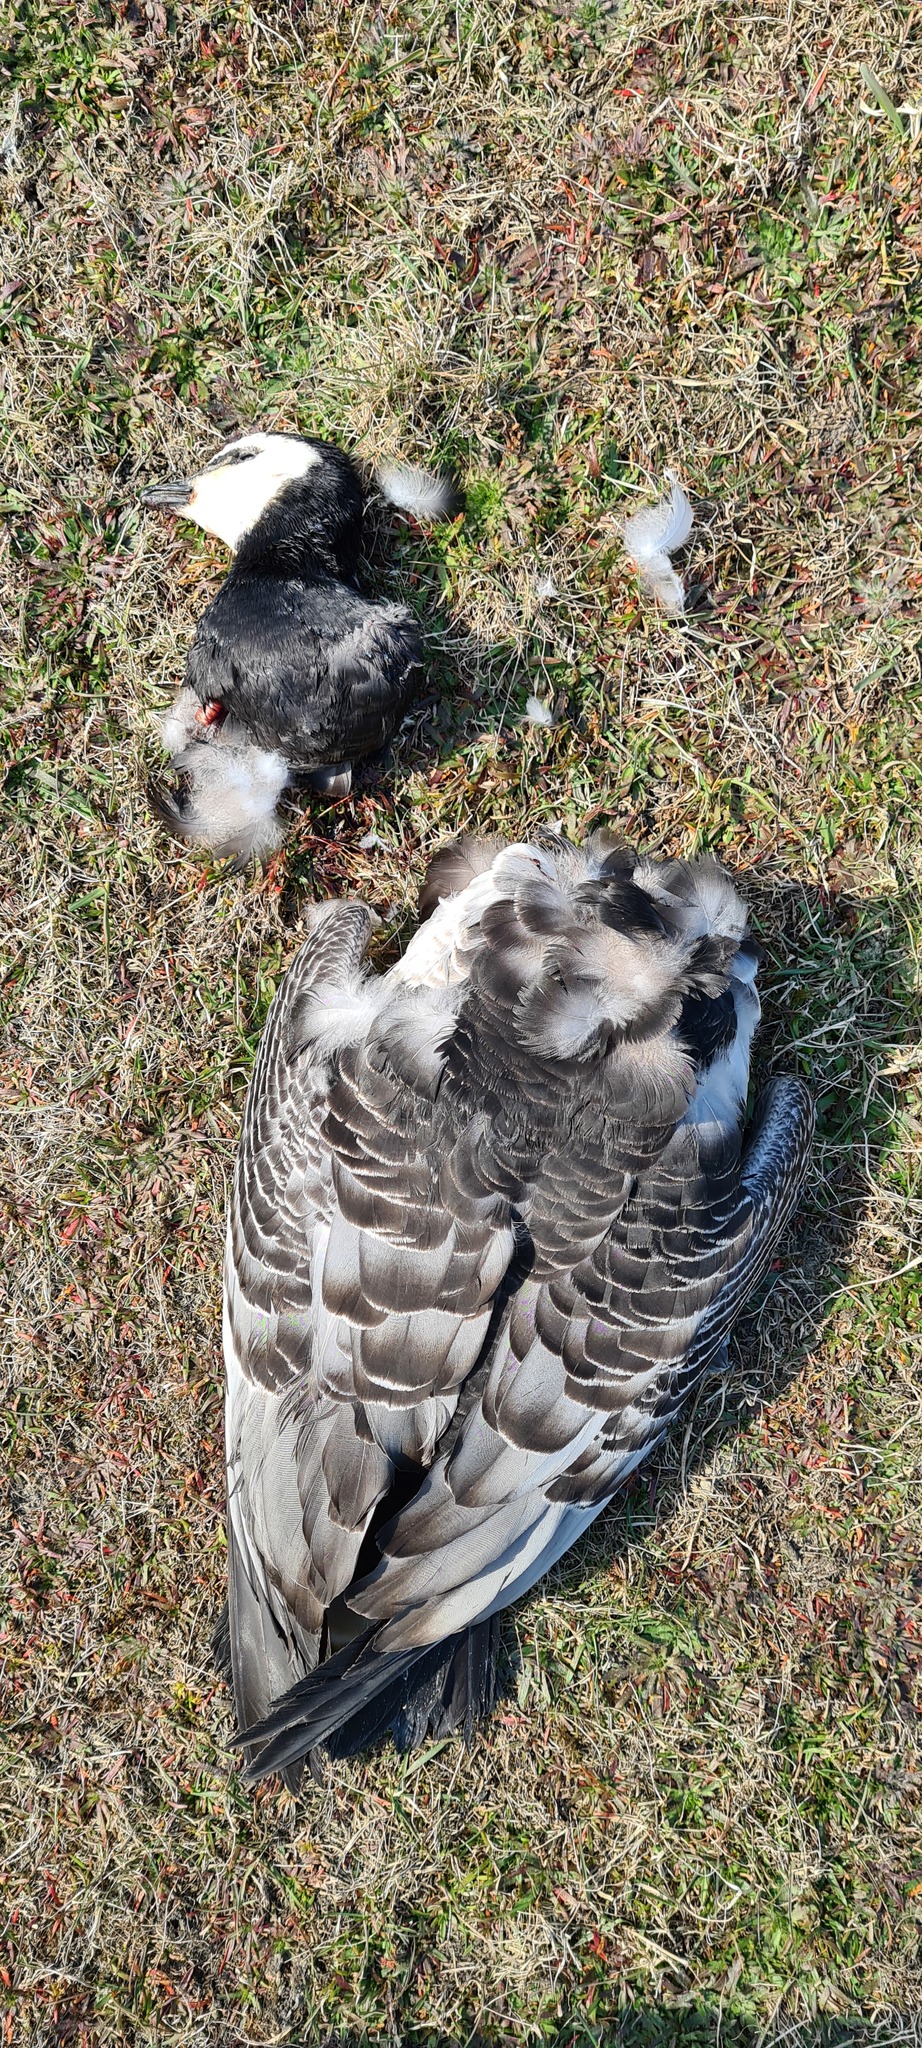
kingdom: Animalia
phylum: Chordata
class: Aves
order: Anseriformes
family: Anatidae
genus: Branta
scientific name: Branta leucopsis
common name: Barnacle goose
